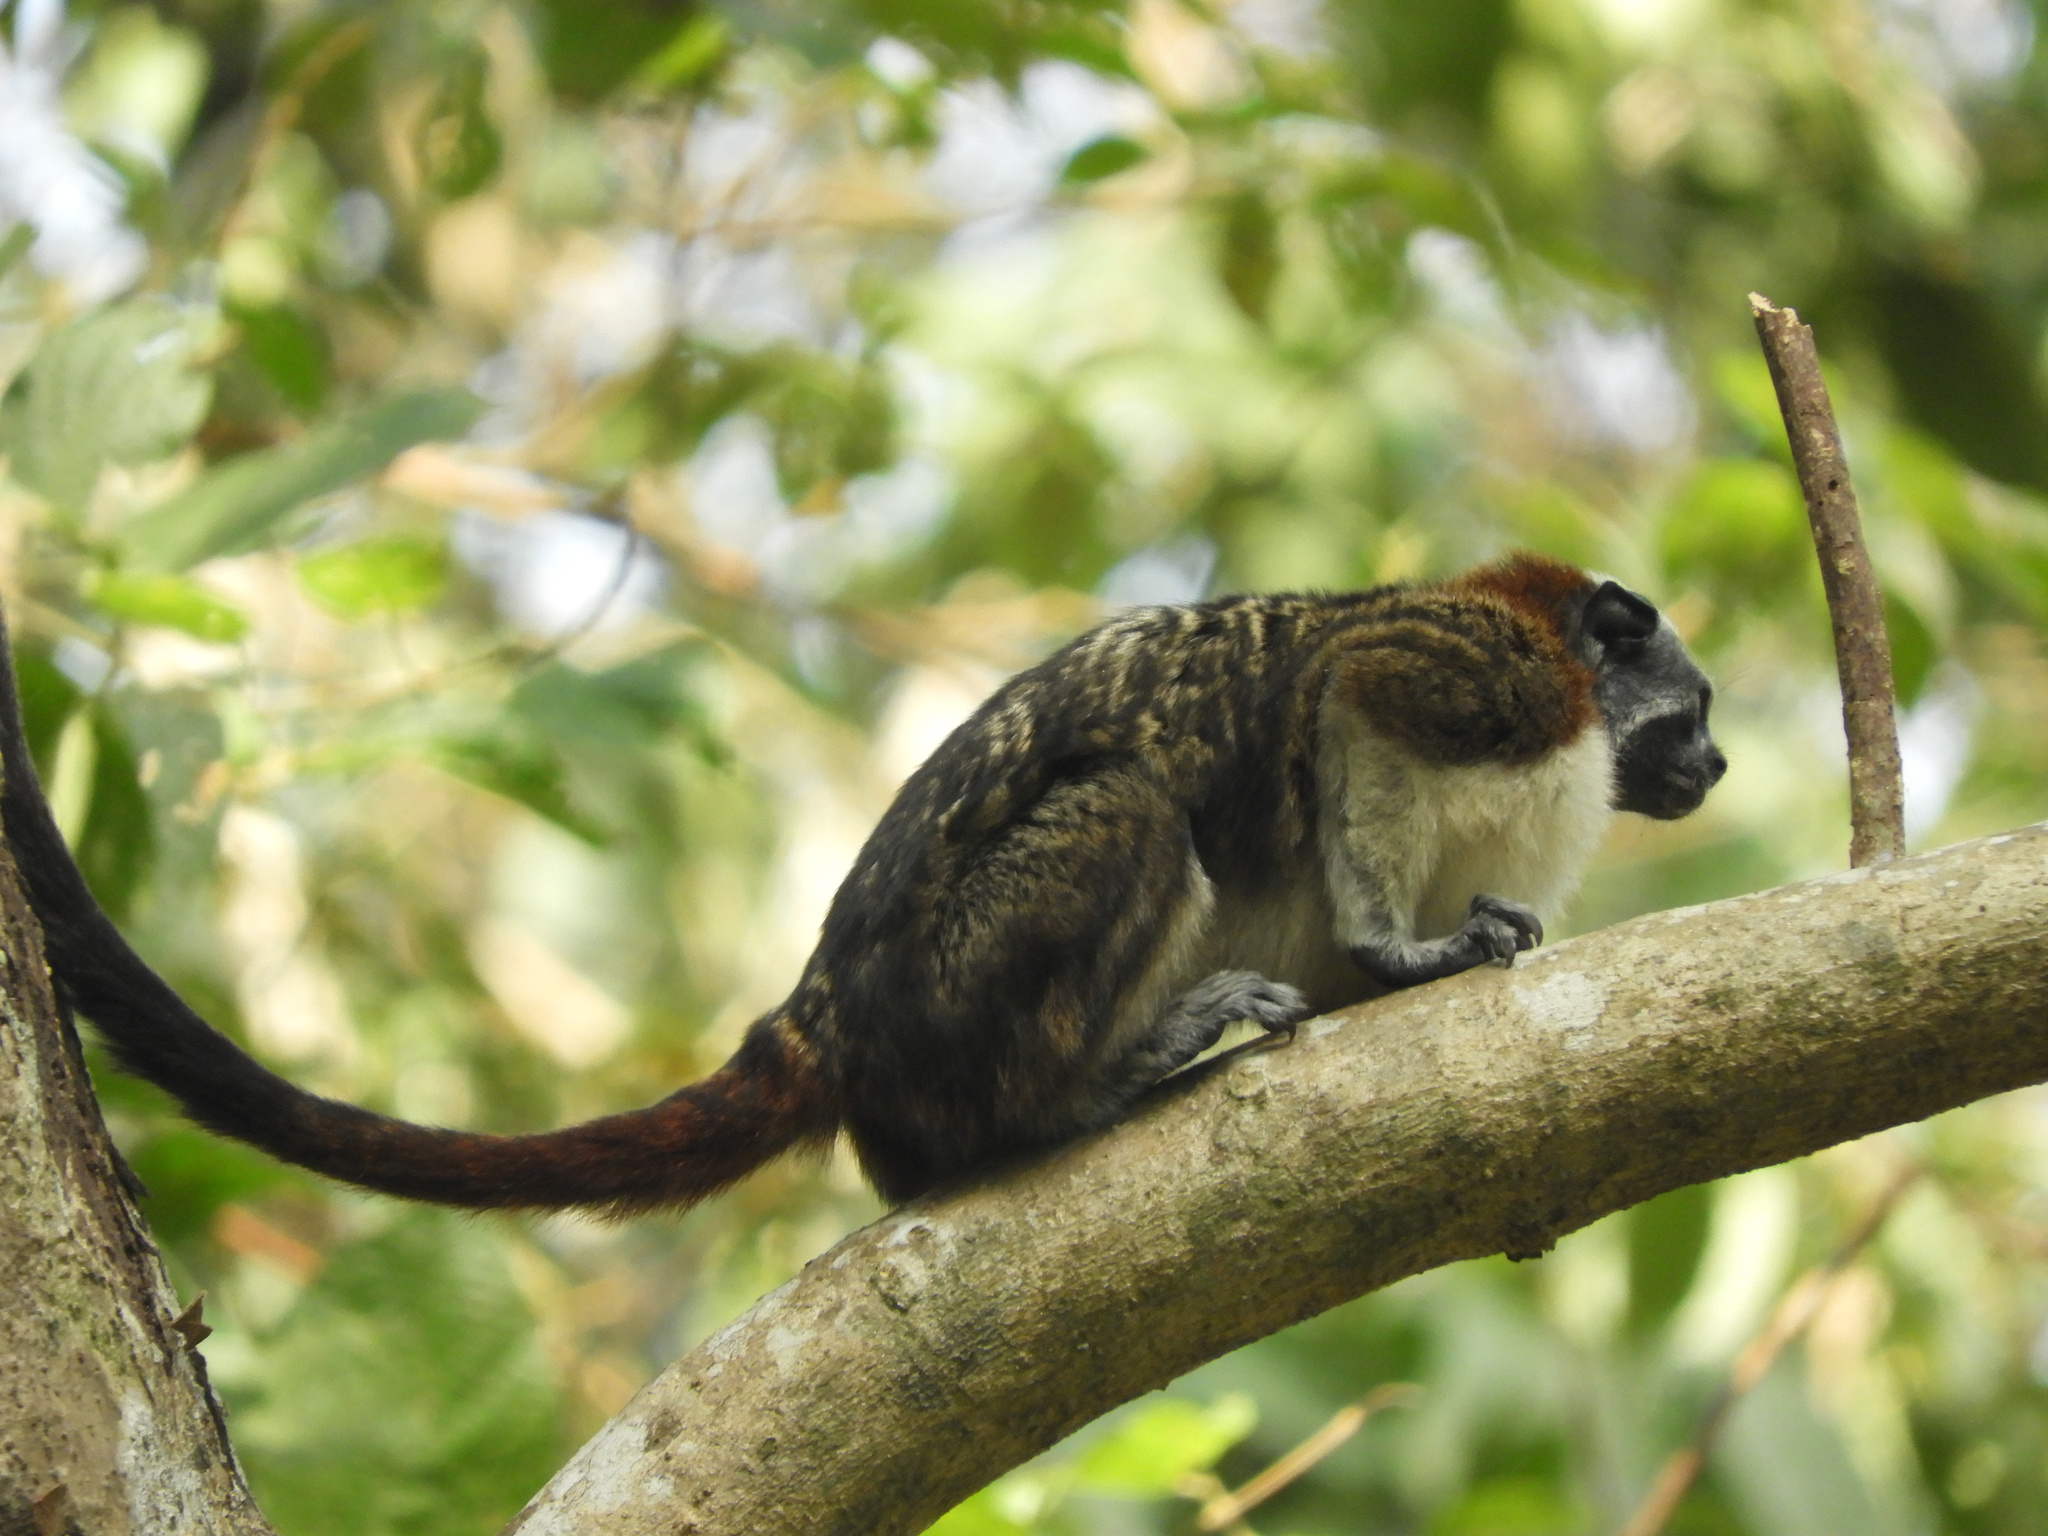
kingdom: Animalia
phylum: Chordata
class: Mammalia
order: Primates
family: Callitrichidae
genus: Saguinus
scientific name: Saguinus geoffroyi
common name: Geoffroy s tamarin
